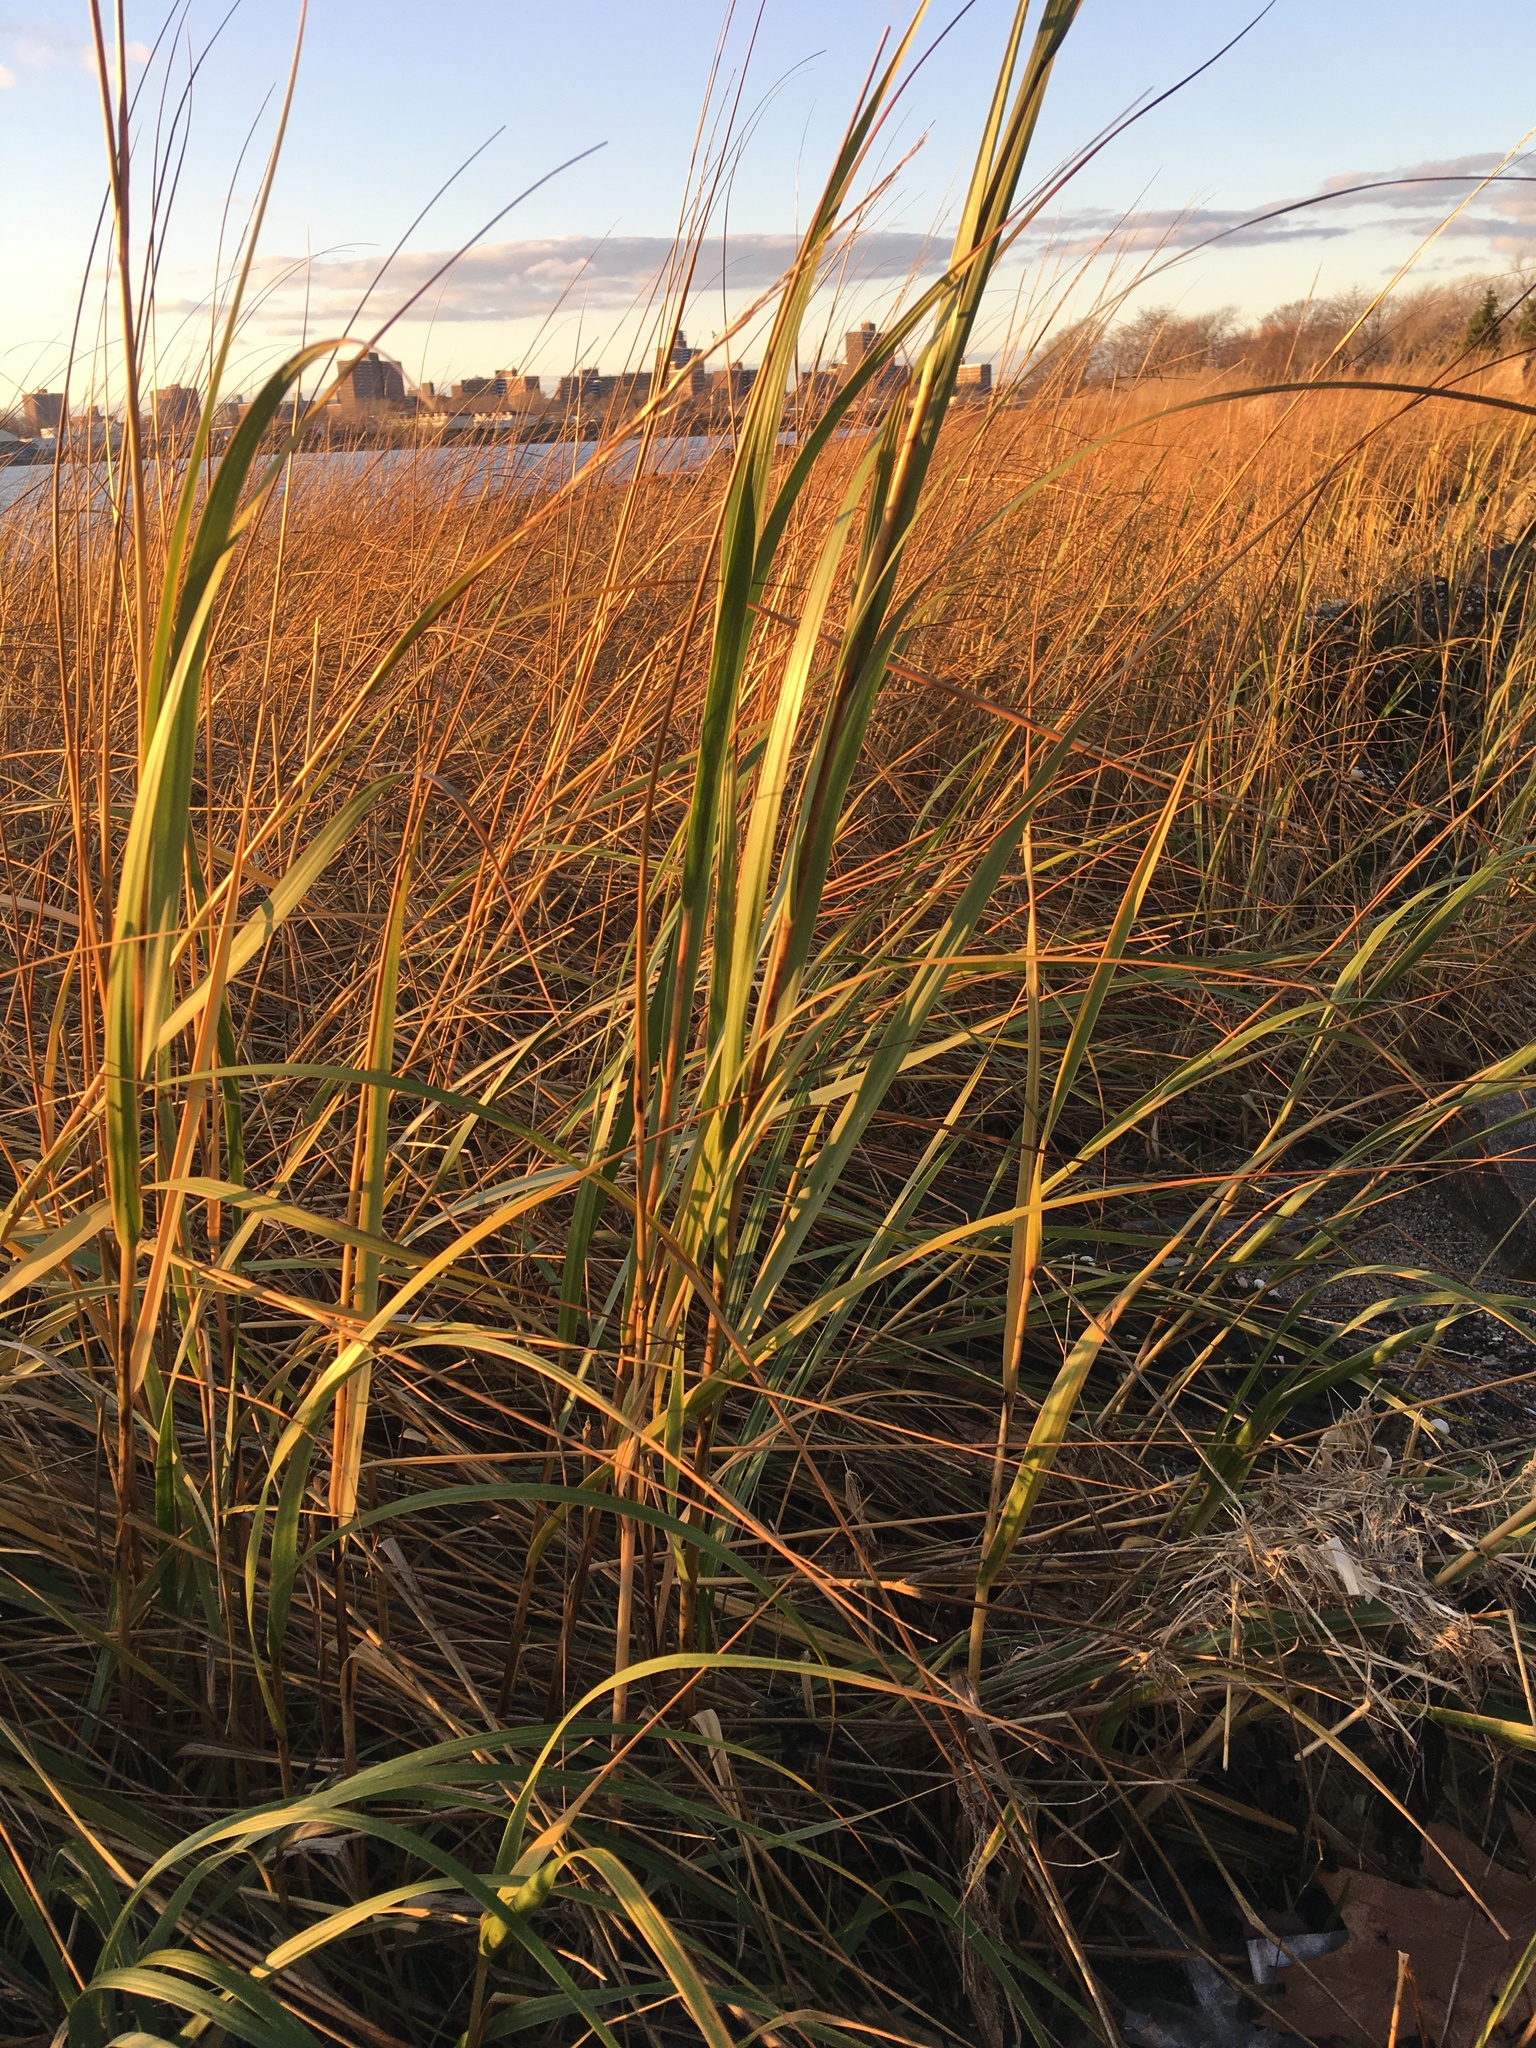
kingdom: Plantae
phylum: Tracheophyta
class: Liliopsida
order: Poales
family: Poaceae
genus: Sporobolus
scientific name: Sporobolus alterniflorus
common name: Atlantic cordgrass
